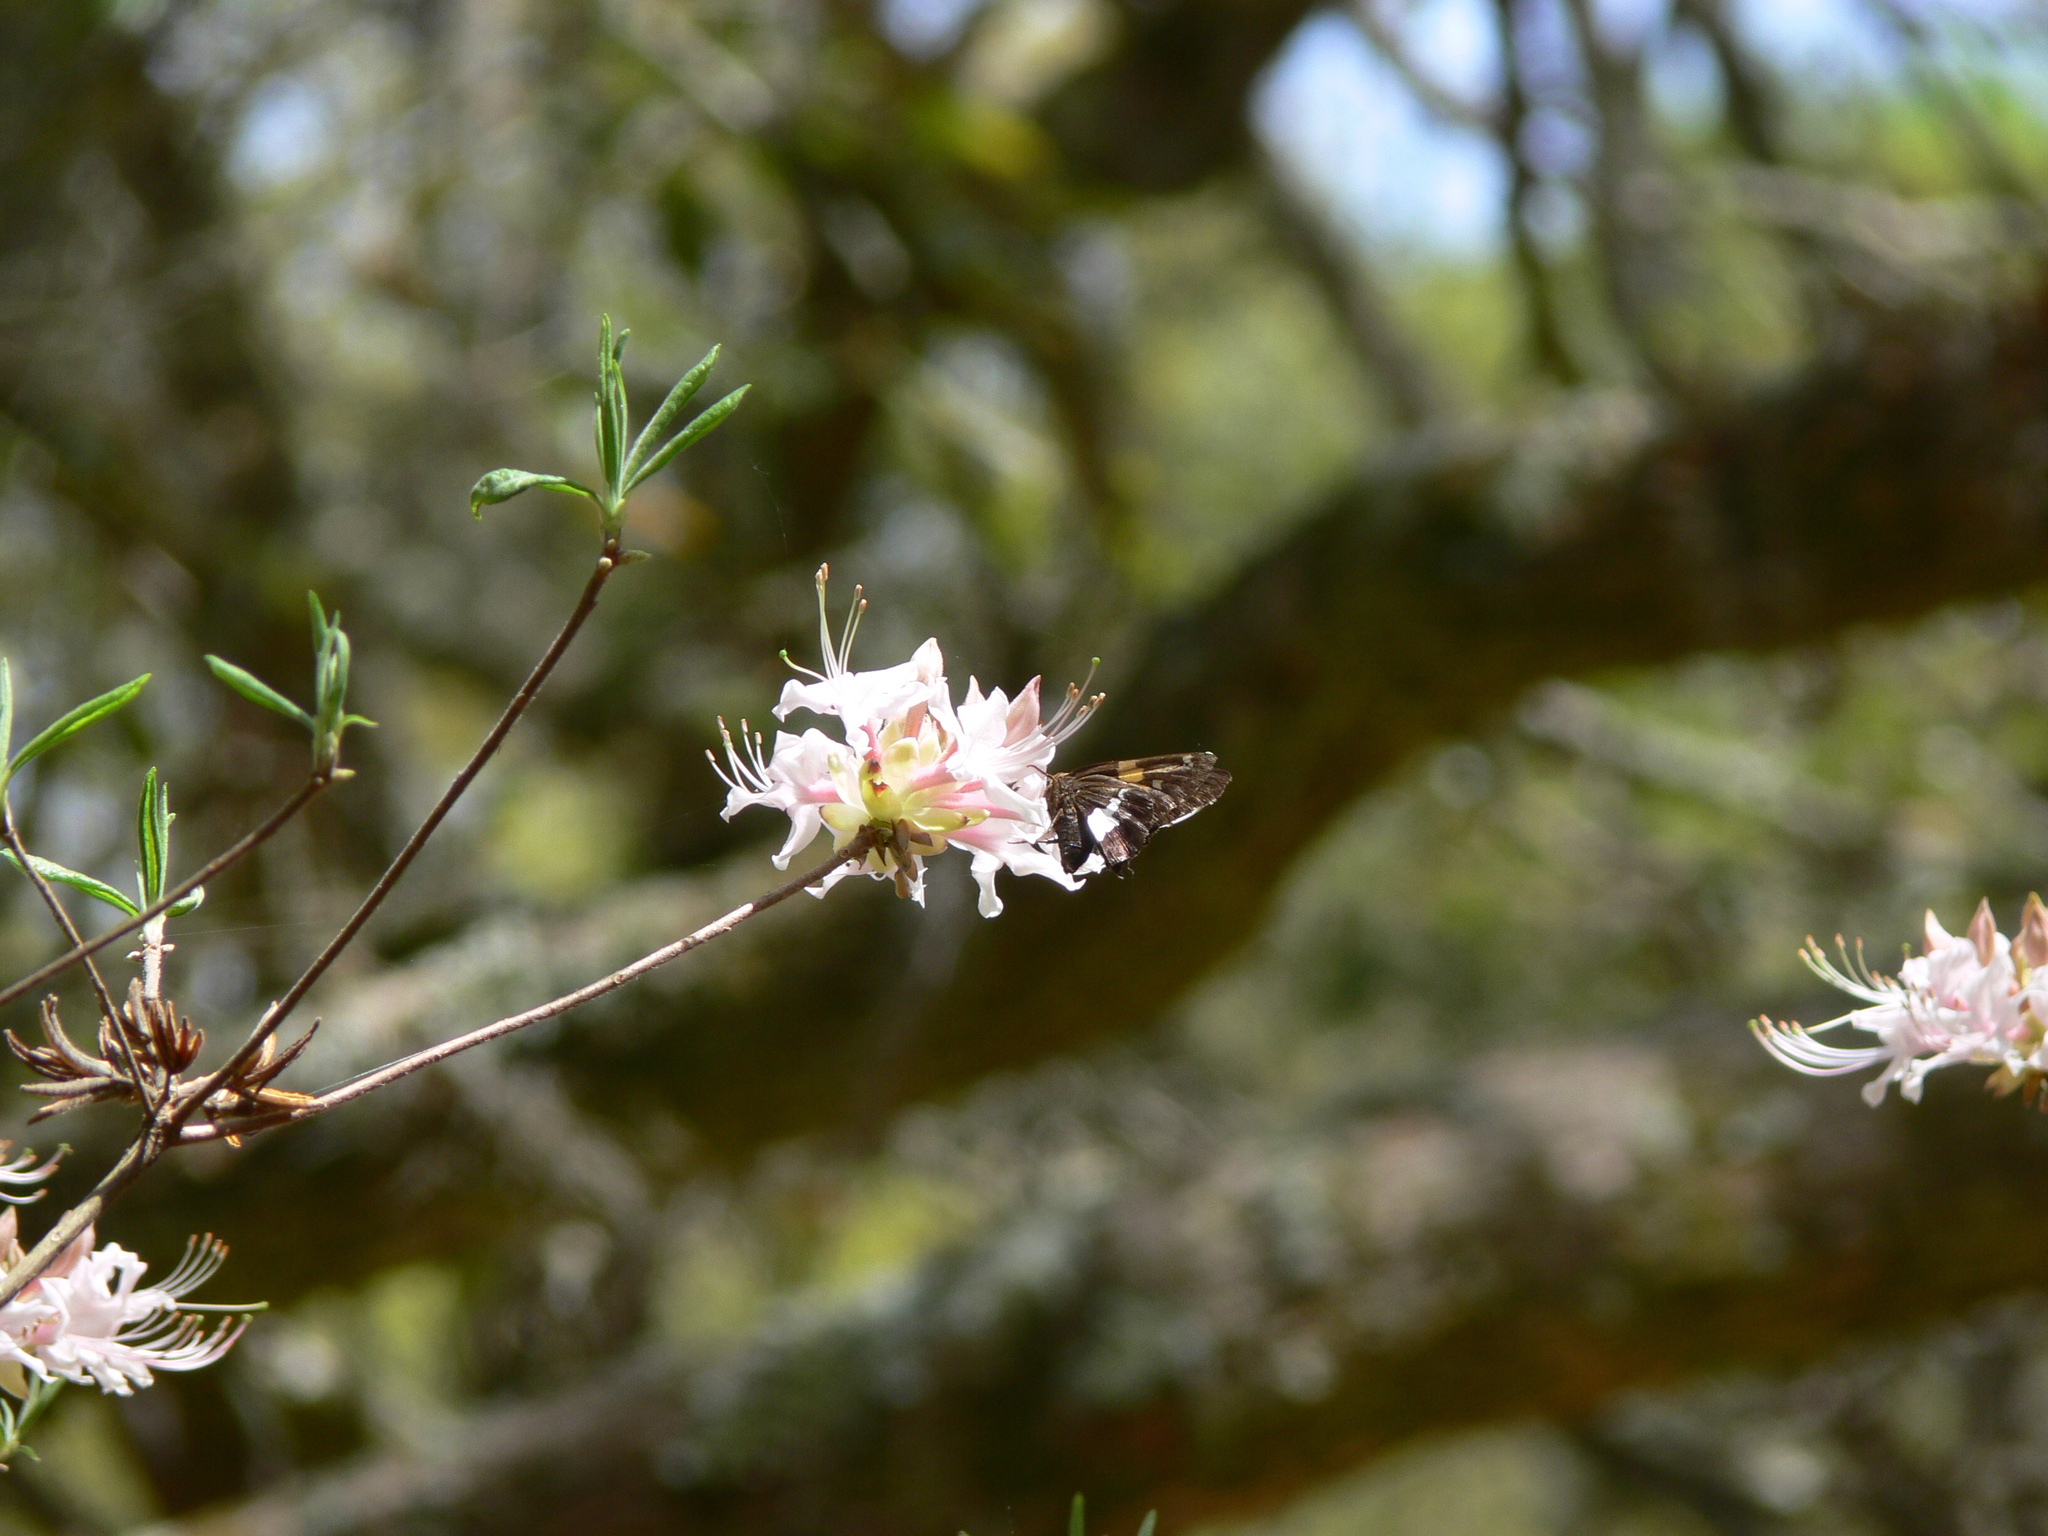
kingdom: Animalia
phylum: Arthropoda
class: Insecta
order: Lepidoptera
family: Hesperiidae
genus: Epargyreus
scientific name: Epargyreus clarus
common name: Silver-spotted skipper
